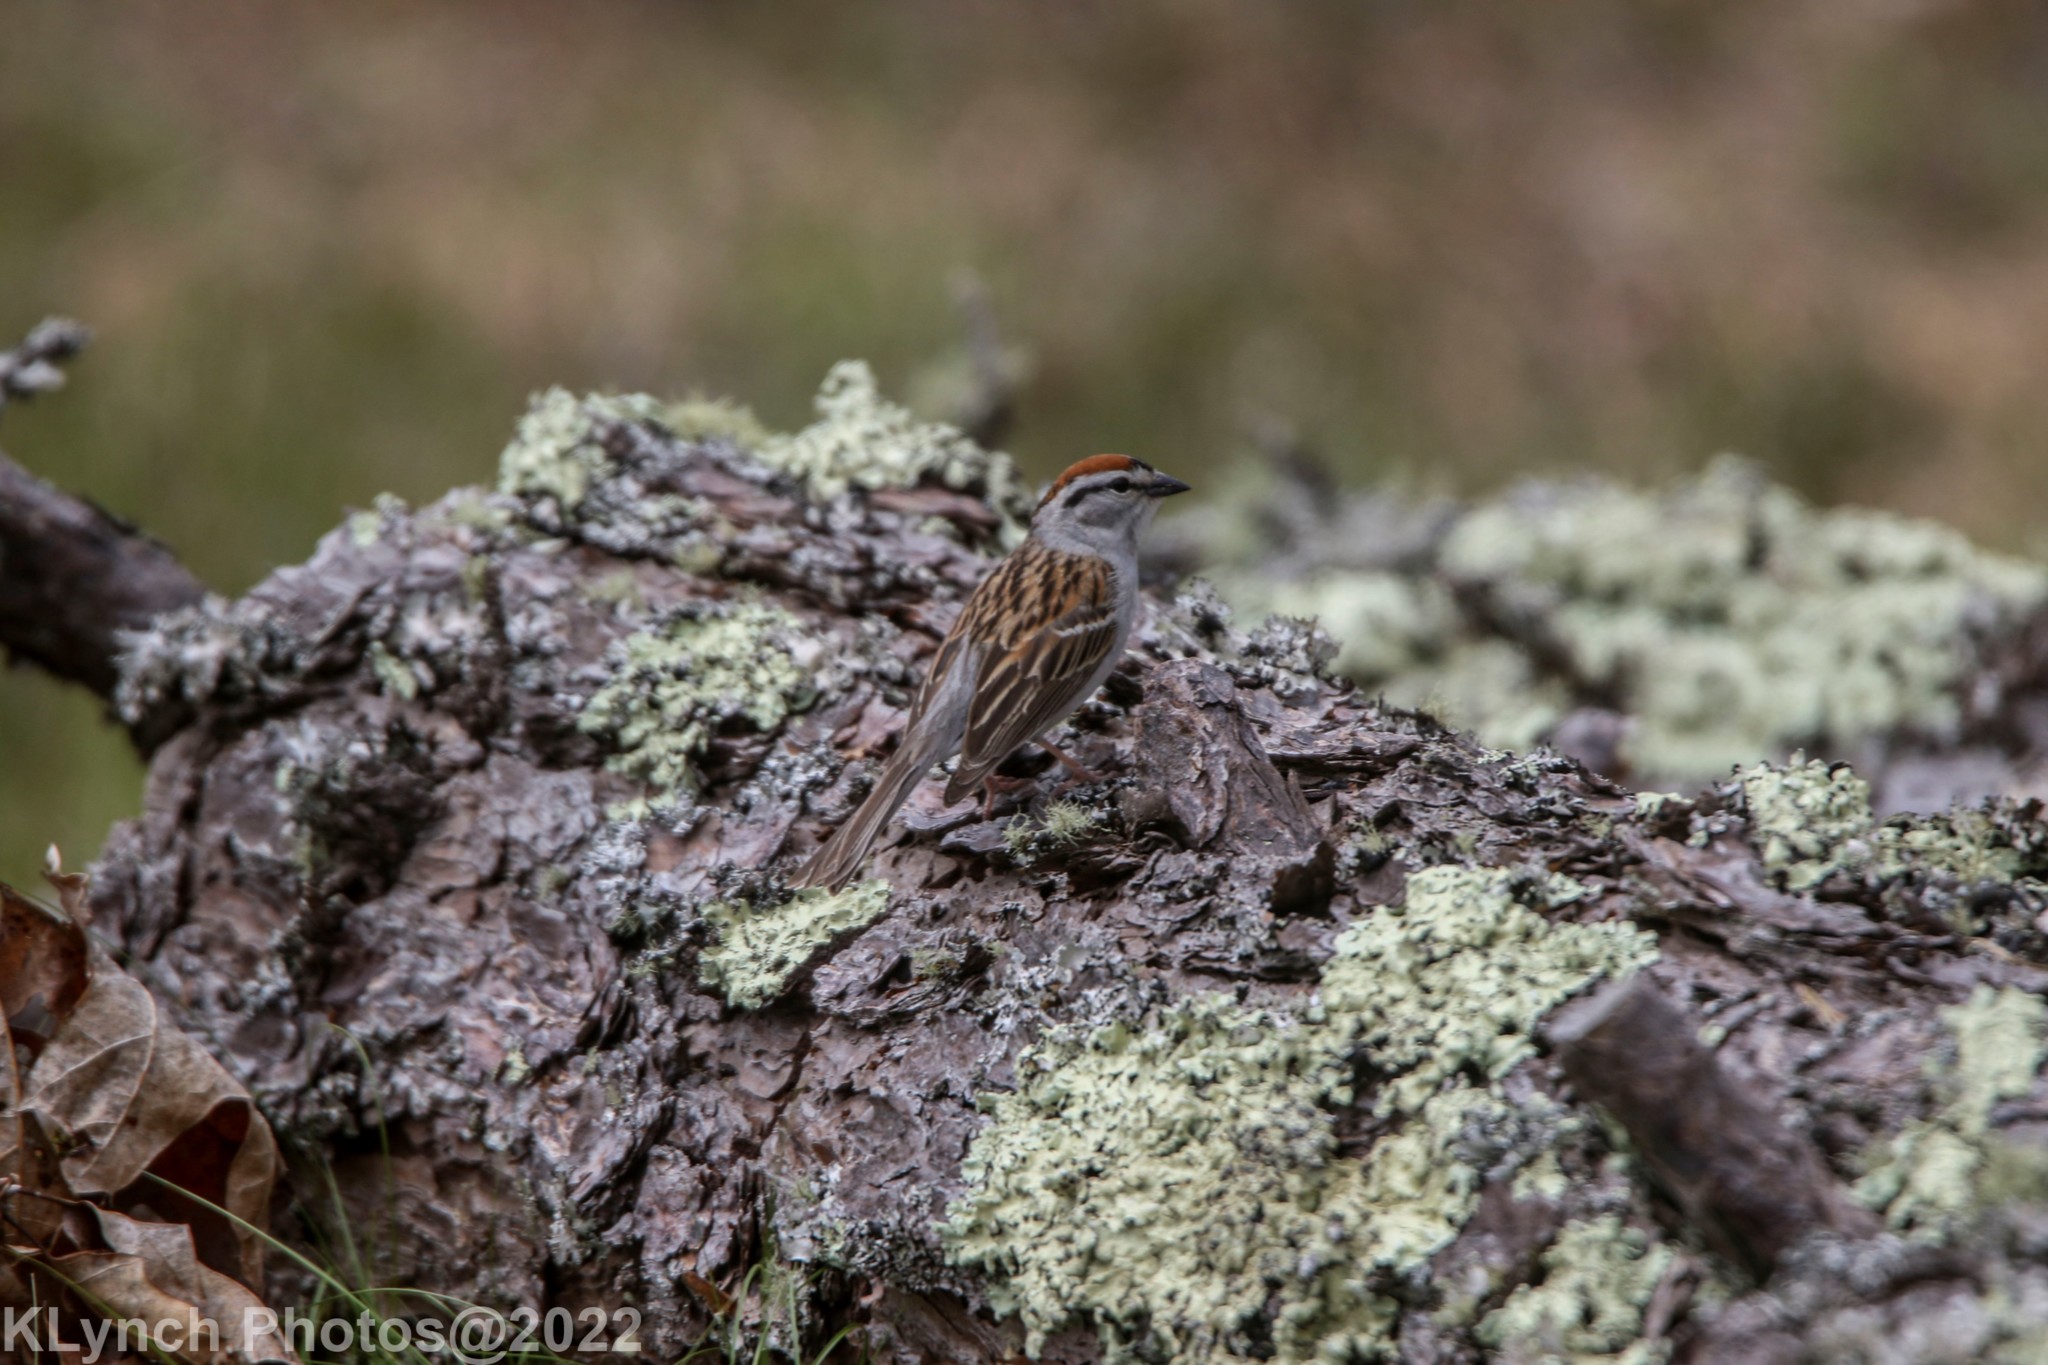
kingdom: Animalia
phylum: Chordata
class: Aves
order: Passeriformes
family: Passerellidae
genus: Spizella
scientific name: Spizella passerina
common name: Chipping sparrow
